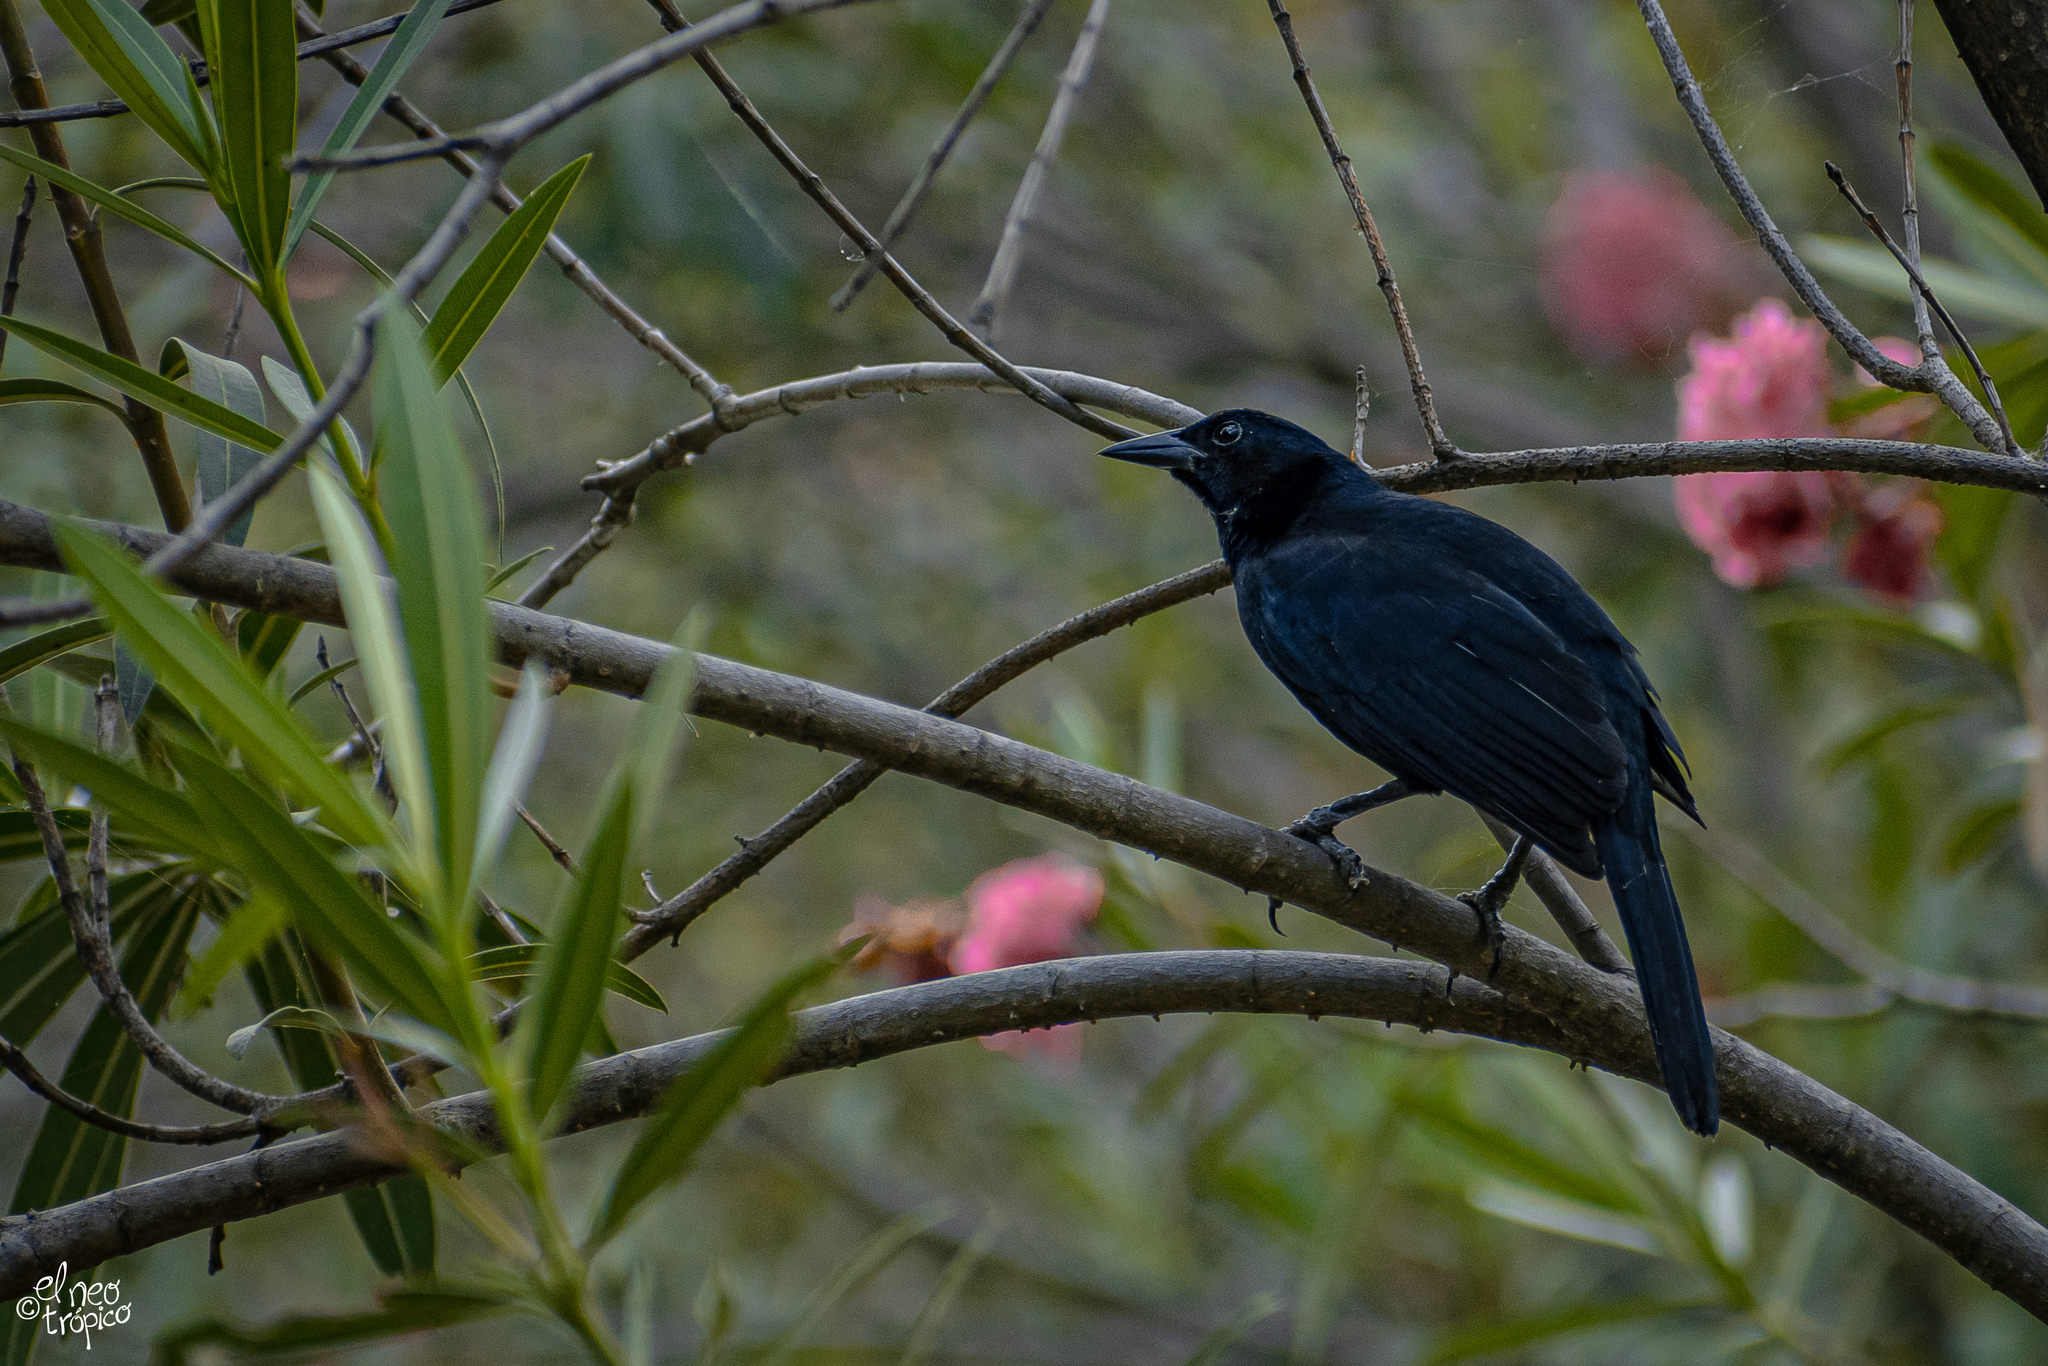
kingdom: Animalia
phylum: Chordata
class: Aves
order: Passeriformes
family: Icteridae
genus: Dives
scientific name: Dives dives
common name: Melodious blackbird
